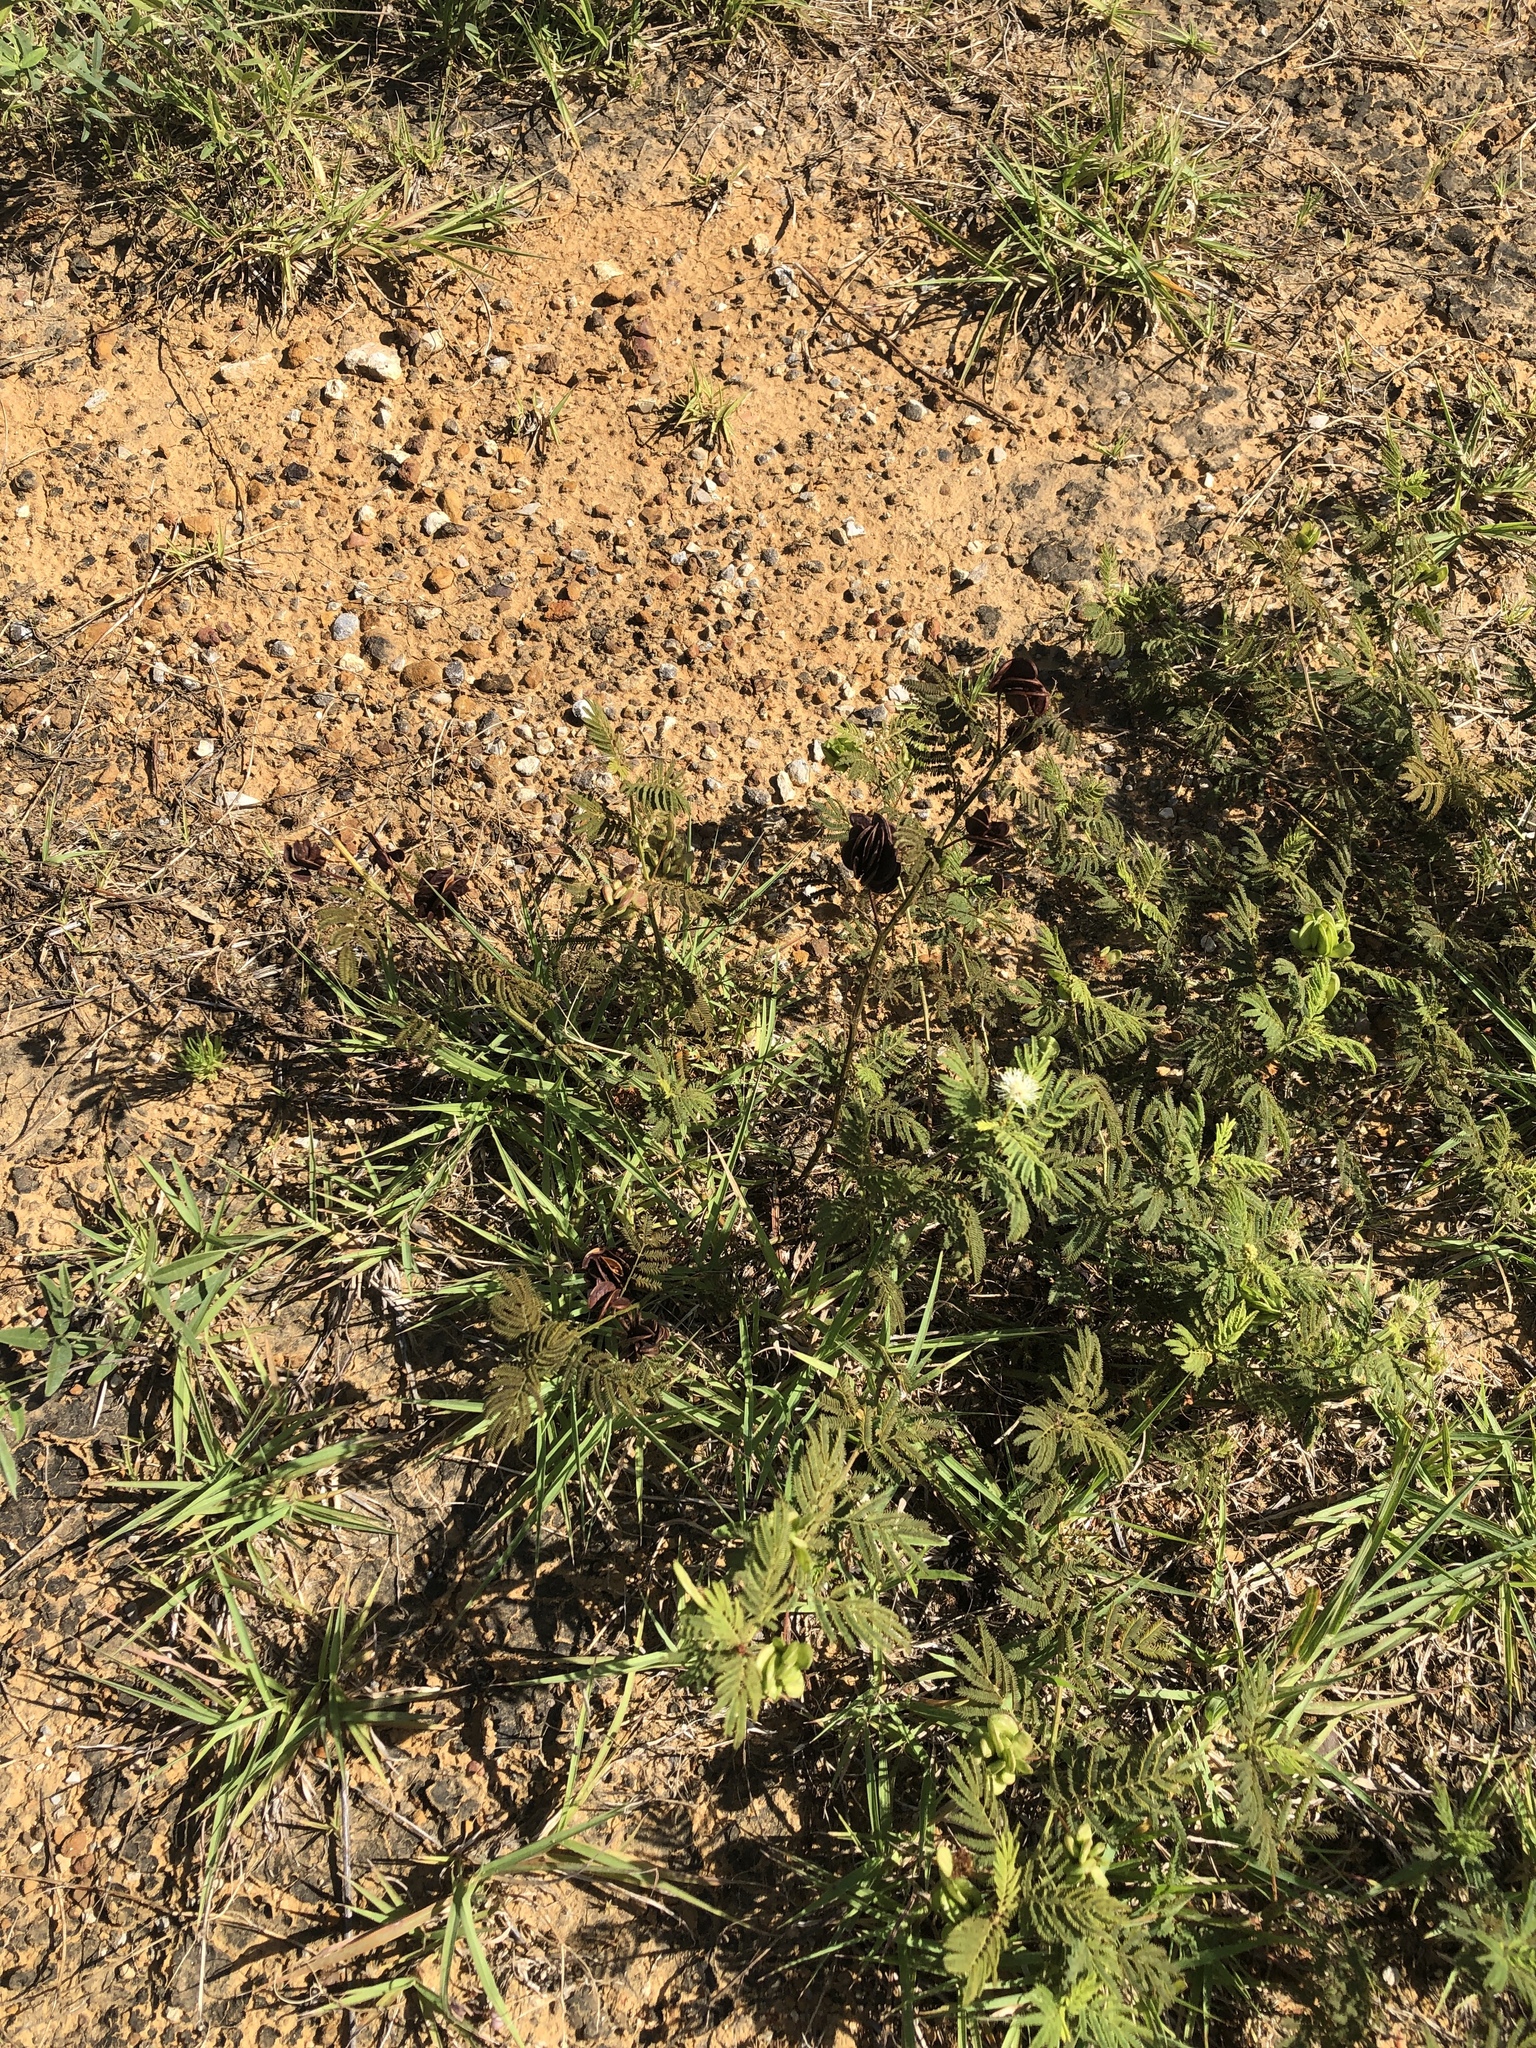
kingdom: Plantae
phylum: Tracheophyta
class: Magnoliopsida
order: Fabales
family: Fabaceae
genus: Desmanthus
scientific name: Desmanthus illinoensis
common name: Illinois bundle-flower
